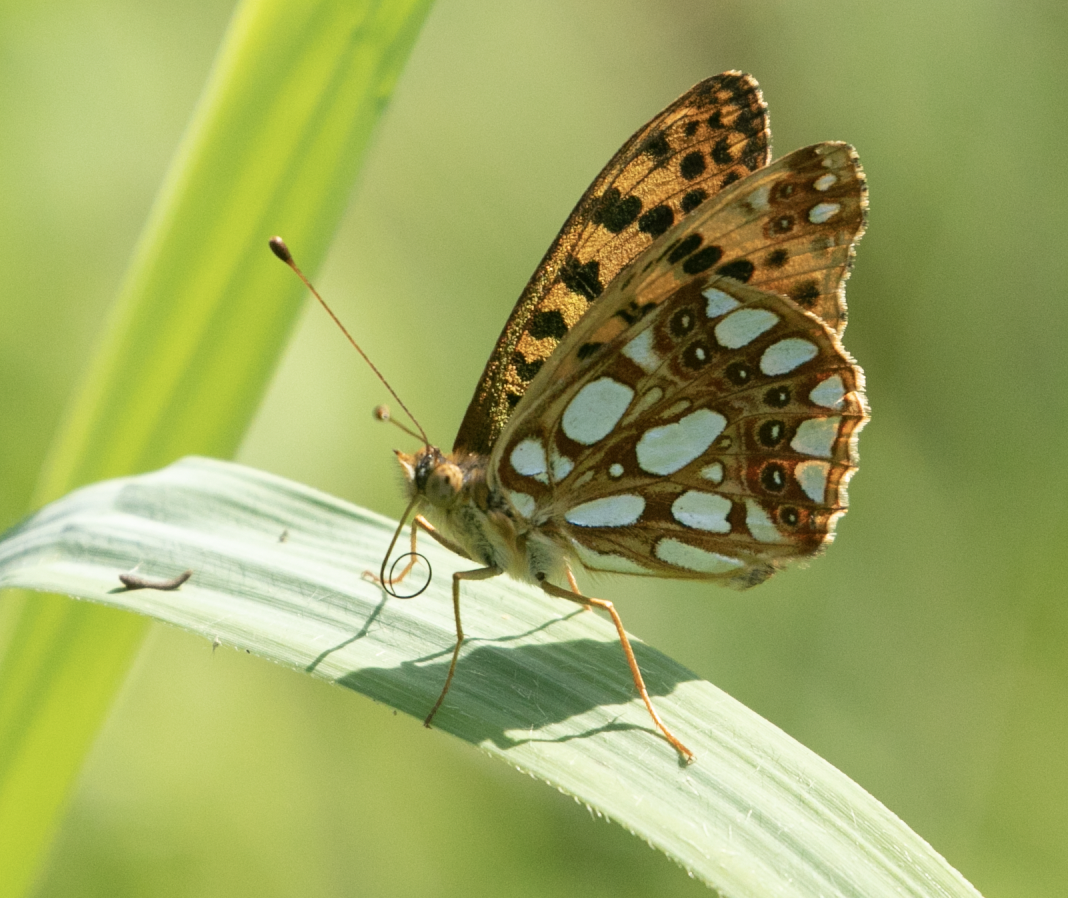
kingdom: Animalia
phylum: Arthropoda
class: Insecta
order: Lepidoptera
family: Nymphalidae
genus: Issoria
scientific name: Issoria lathonia
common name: Queen of spain fritillary
